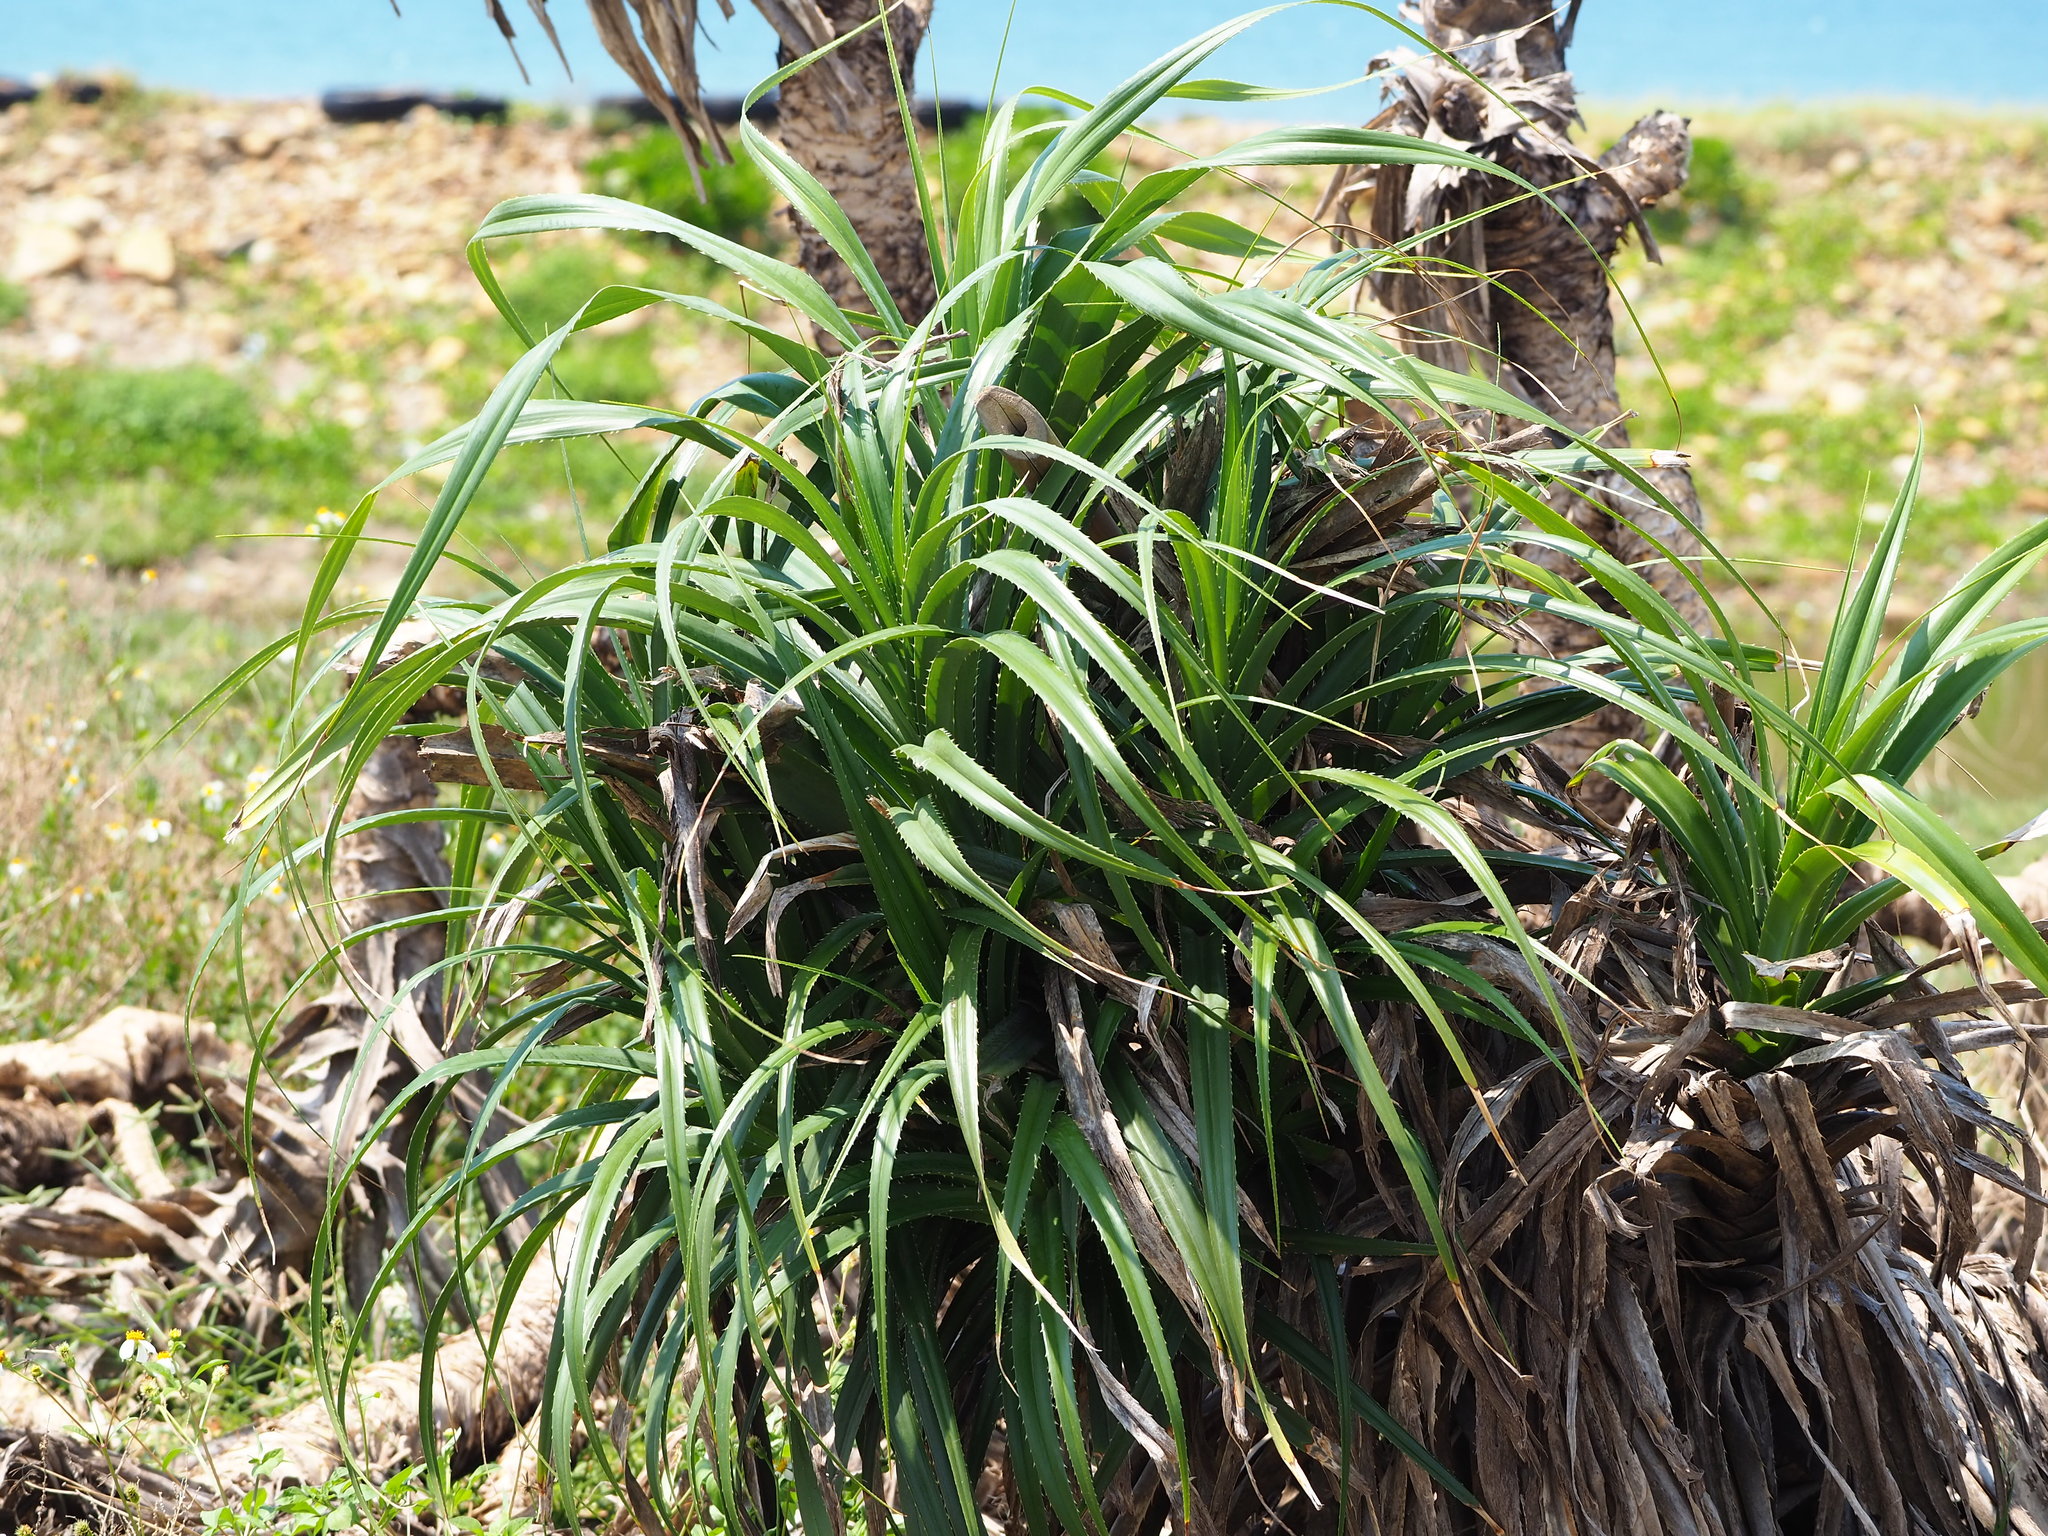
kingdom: Plantae
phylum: Tracheophyta
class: Liliopsida
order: Pandanales
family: Pandanaceae
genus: Pandanus
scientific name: Pandanus odorifer
